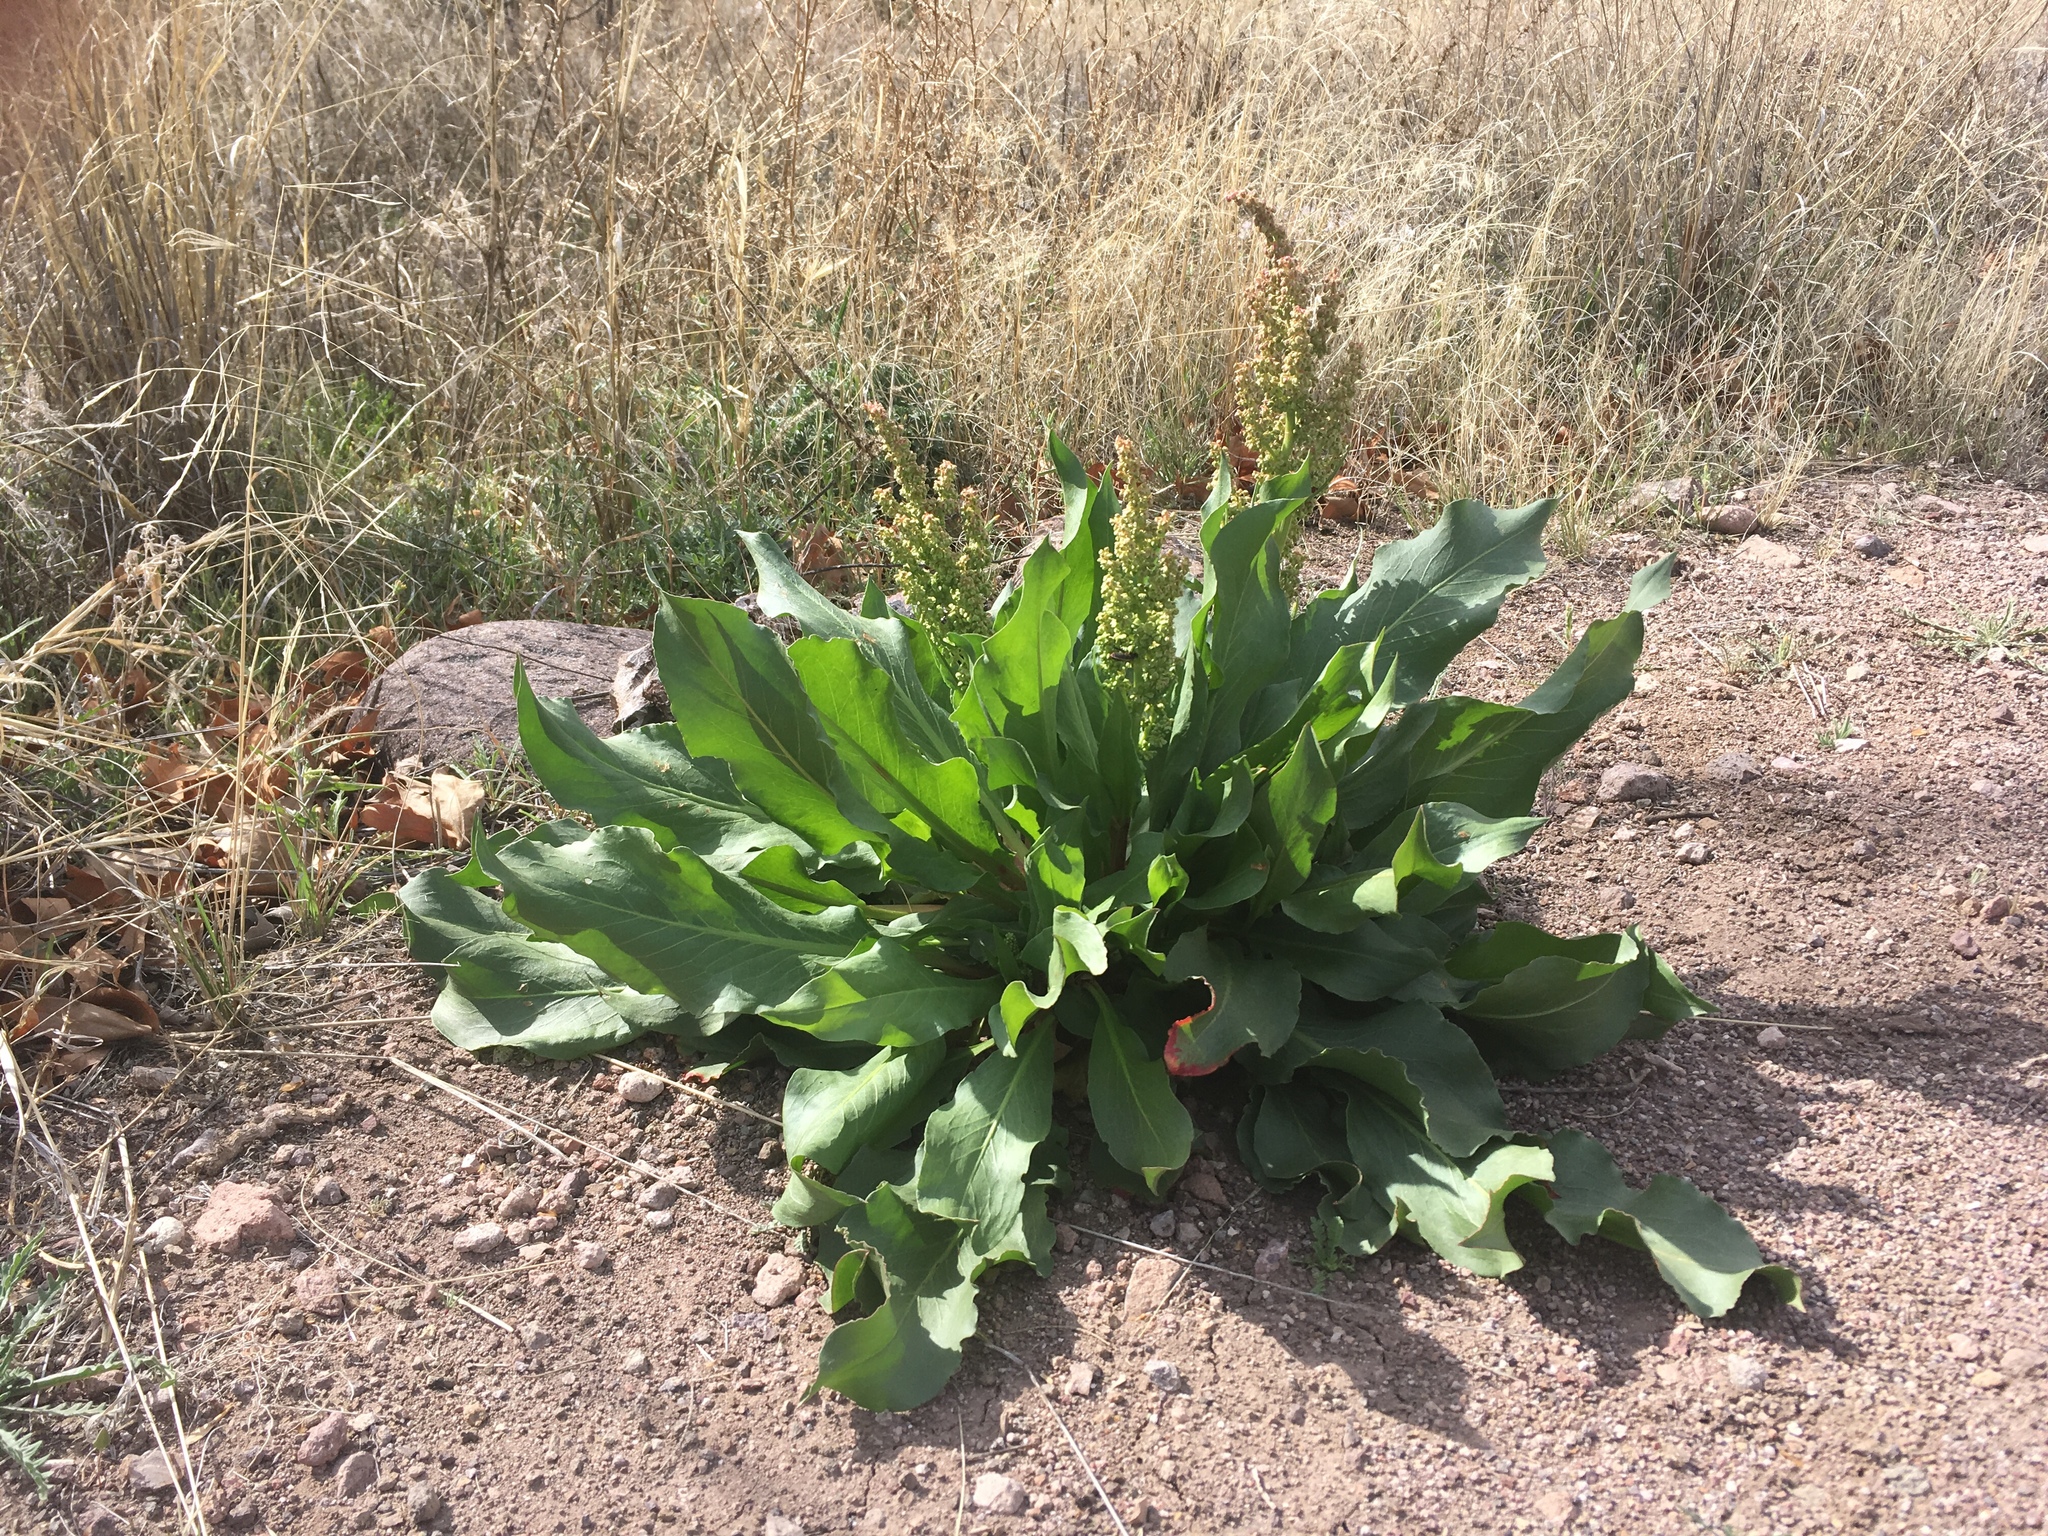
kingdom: Plantae
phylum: Tracheophyta
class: Magnoliopsida
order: Caryophyllales
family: Polygonaceae
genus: Rumex
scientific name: Rumex hymenosepalus
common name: Ganagra
